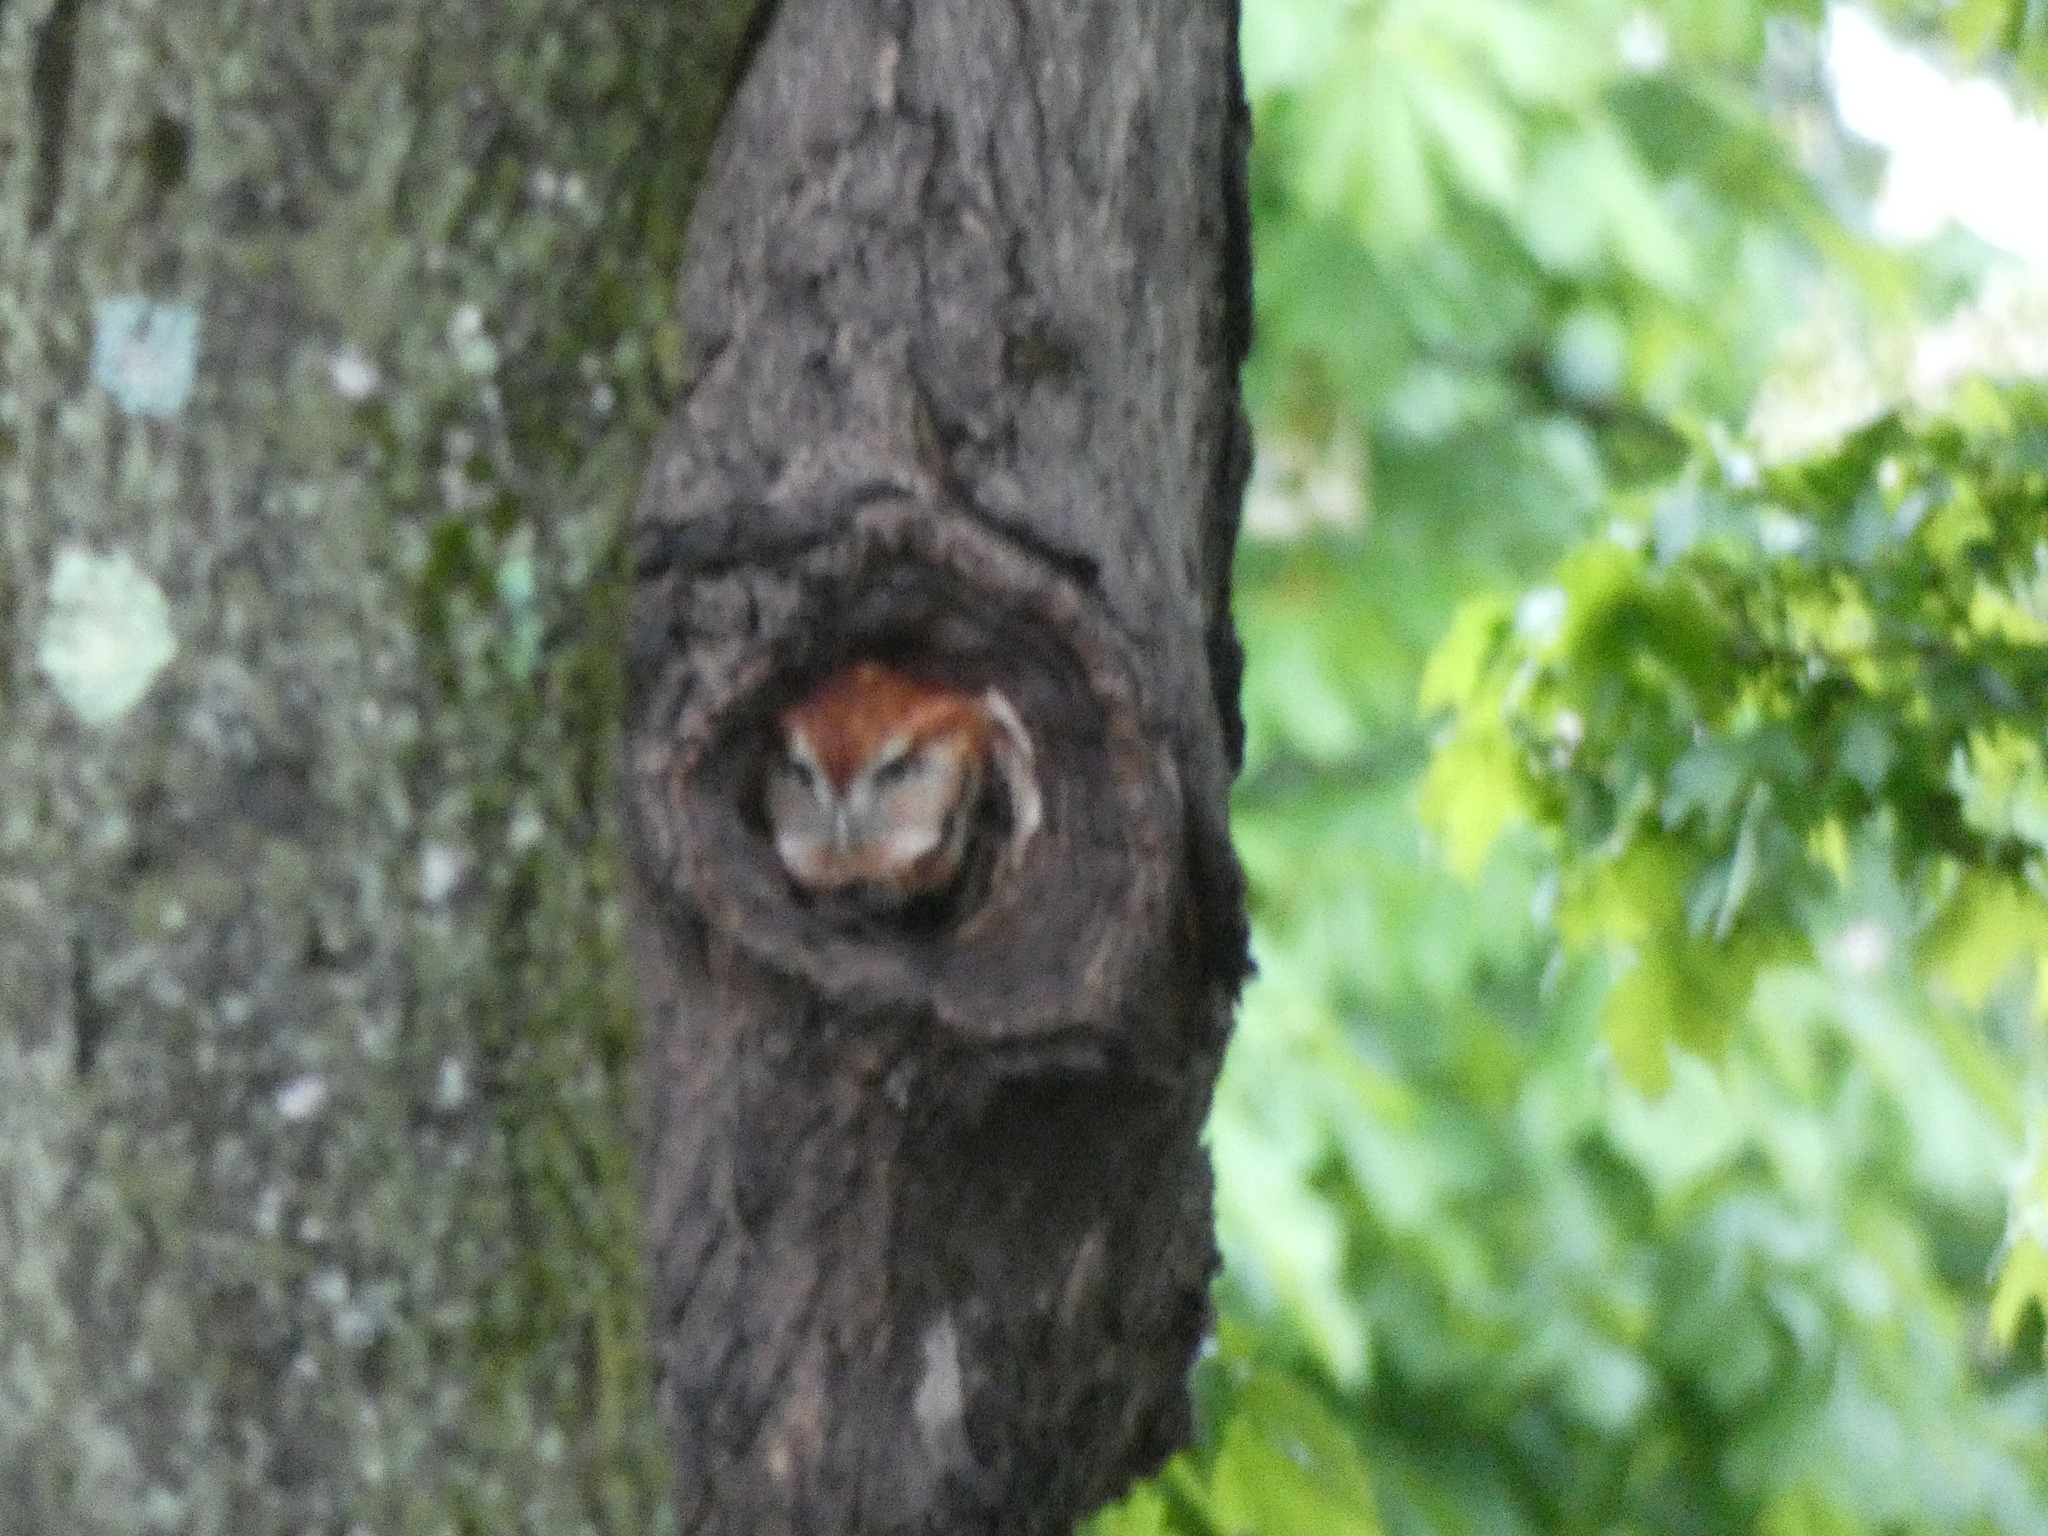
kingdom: Animalia
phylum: Chordata
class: Aves
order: Strigiformes
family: Strigidae
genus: Megascops
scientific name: Megascops asio
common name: Eastern screech-owl
